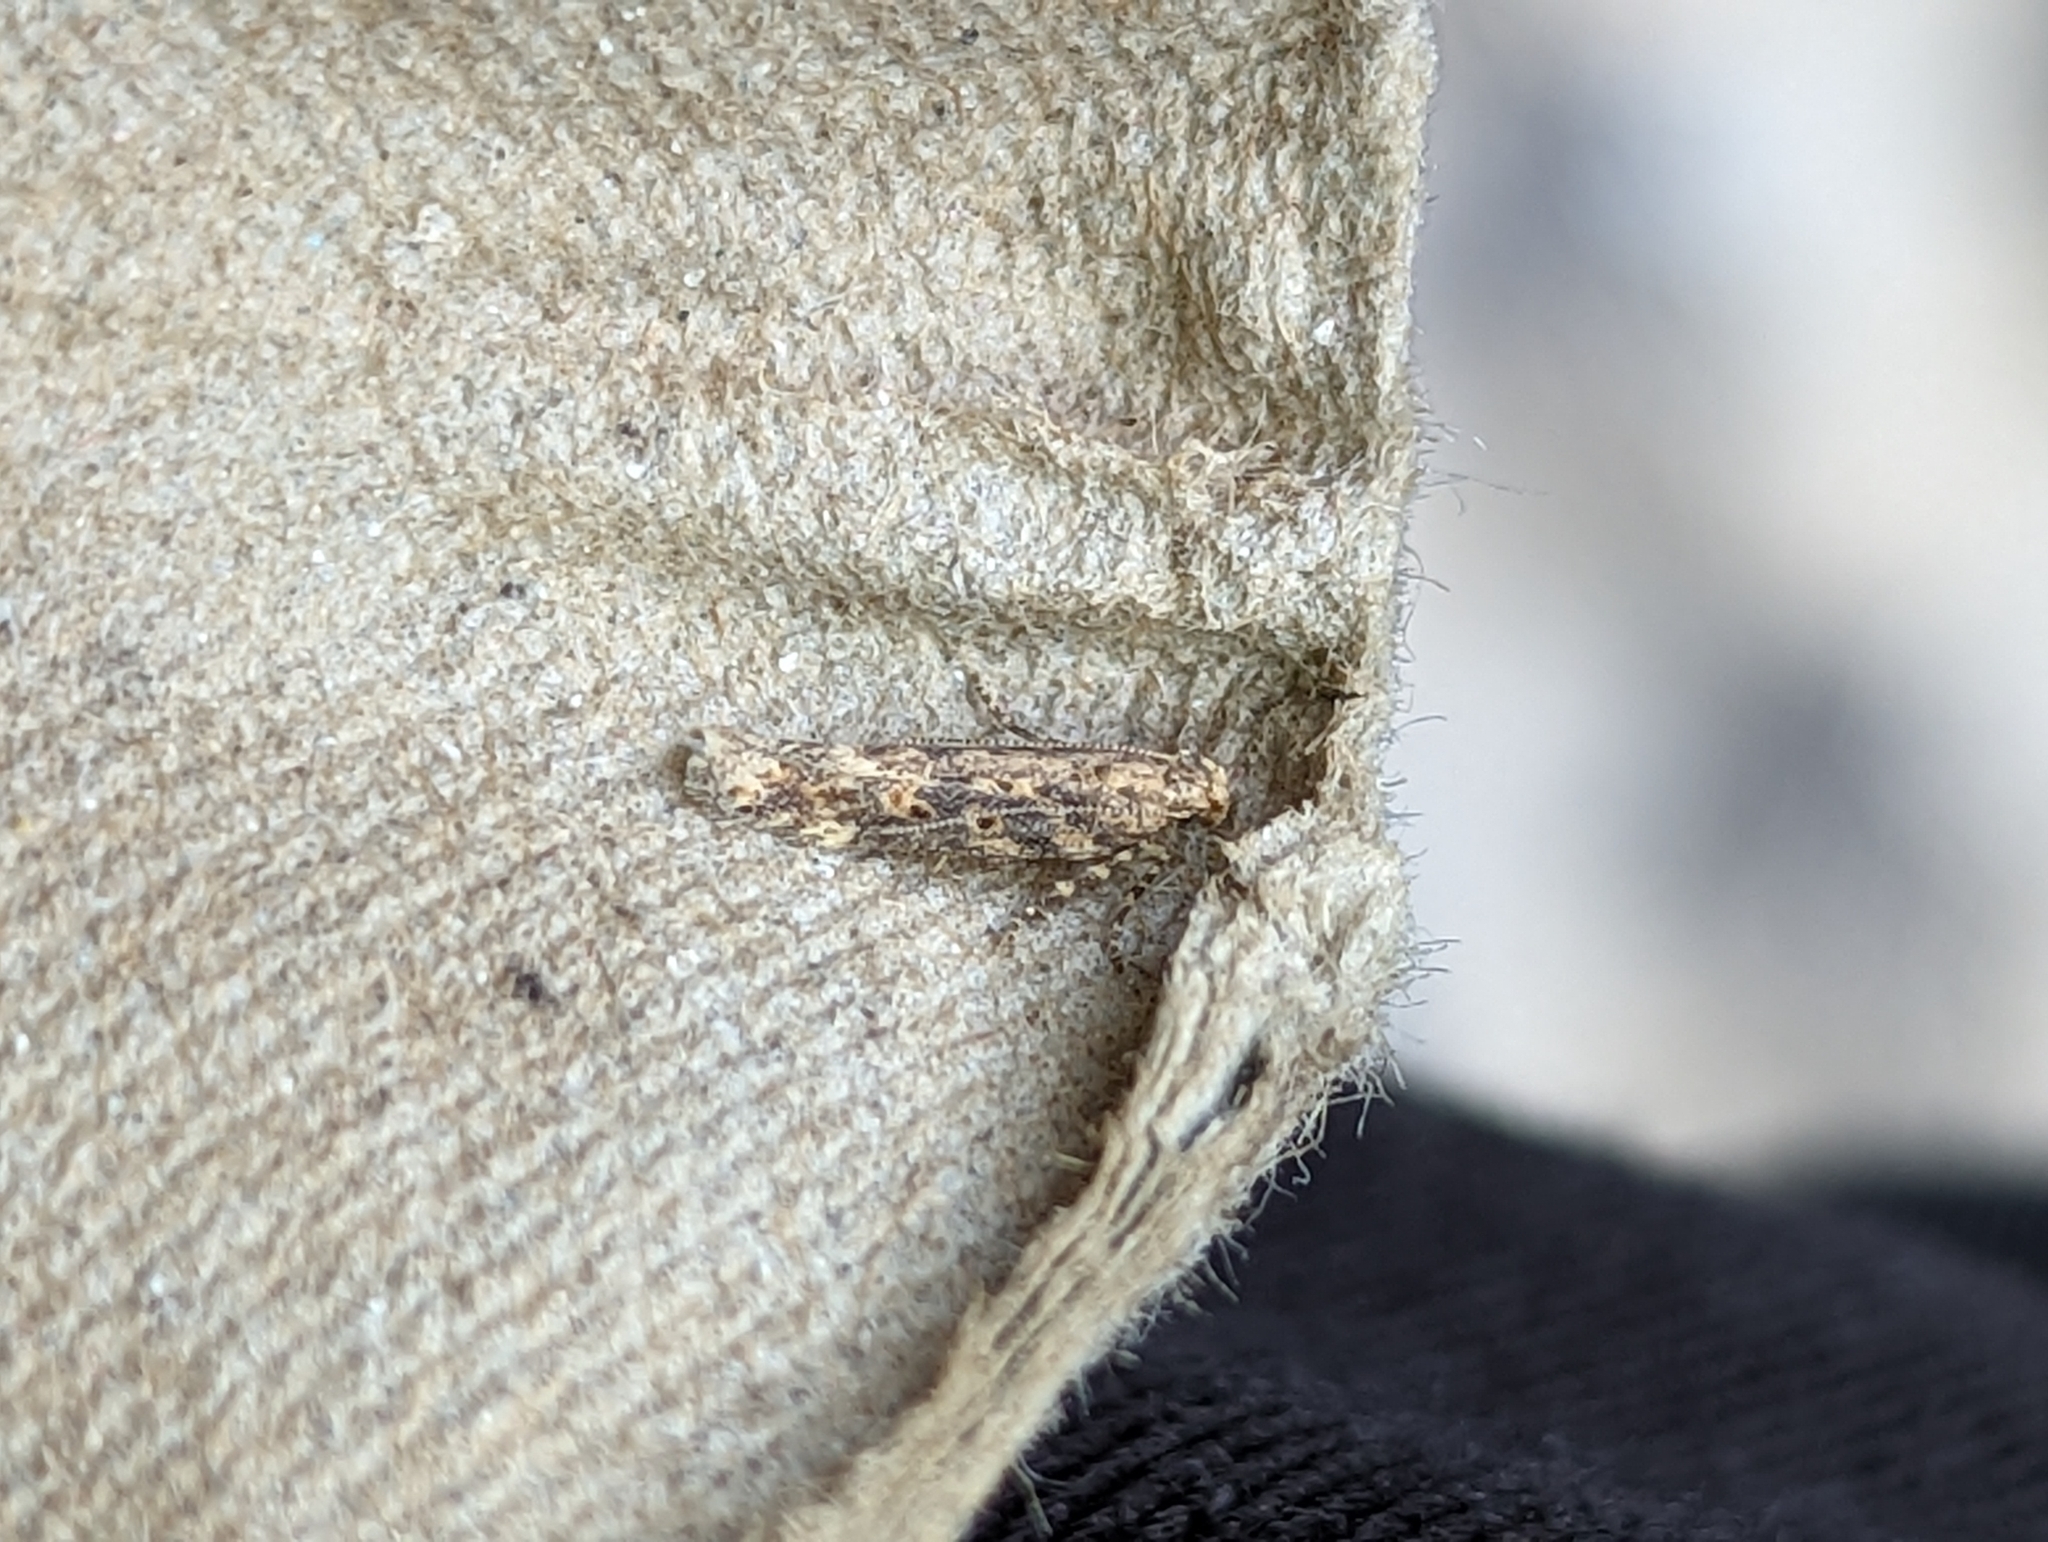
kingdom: Animalia
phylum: Arthropoda
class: Insecta
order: Lepidoptera
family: Gelechiidae
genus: Scrobipalpa
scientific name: Scrobipalpa ocellatella
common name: Beet moth
